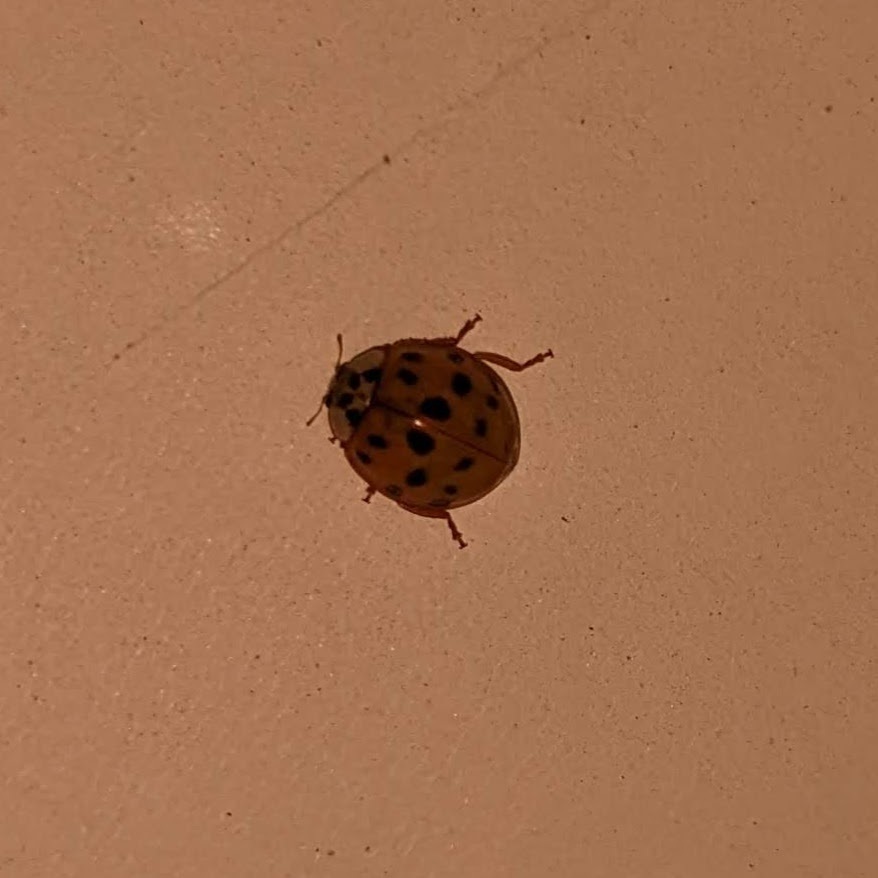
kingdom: Animalia
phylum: Arthropoda
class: Insecta
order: Coleoptera
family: Coccinellidae
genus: Harmonia
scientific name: Harmonia axyridis
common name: Harlequin ladybird
